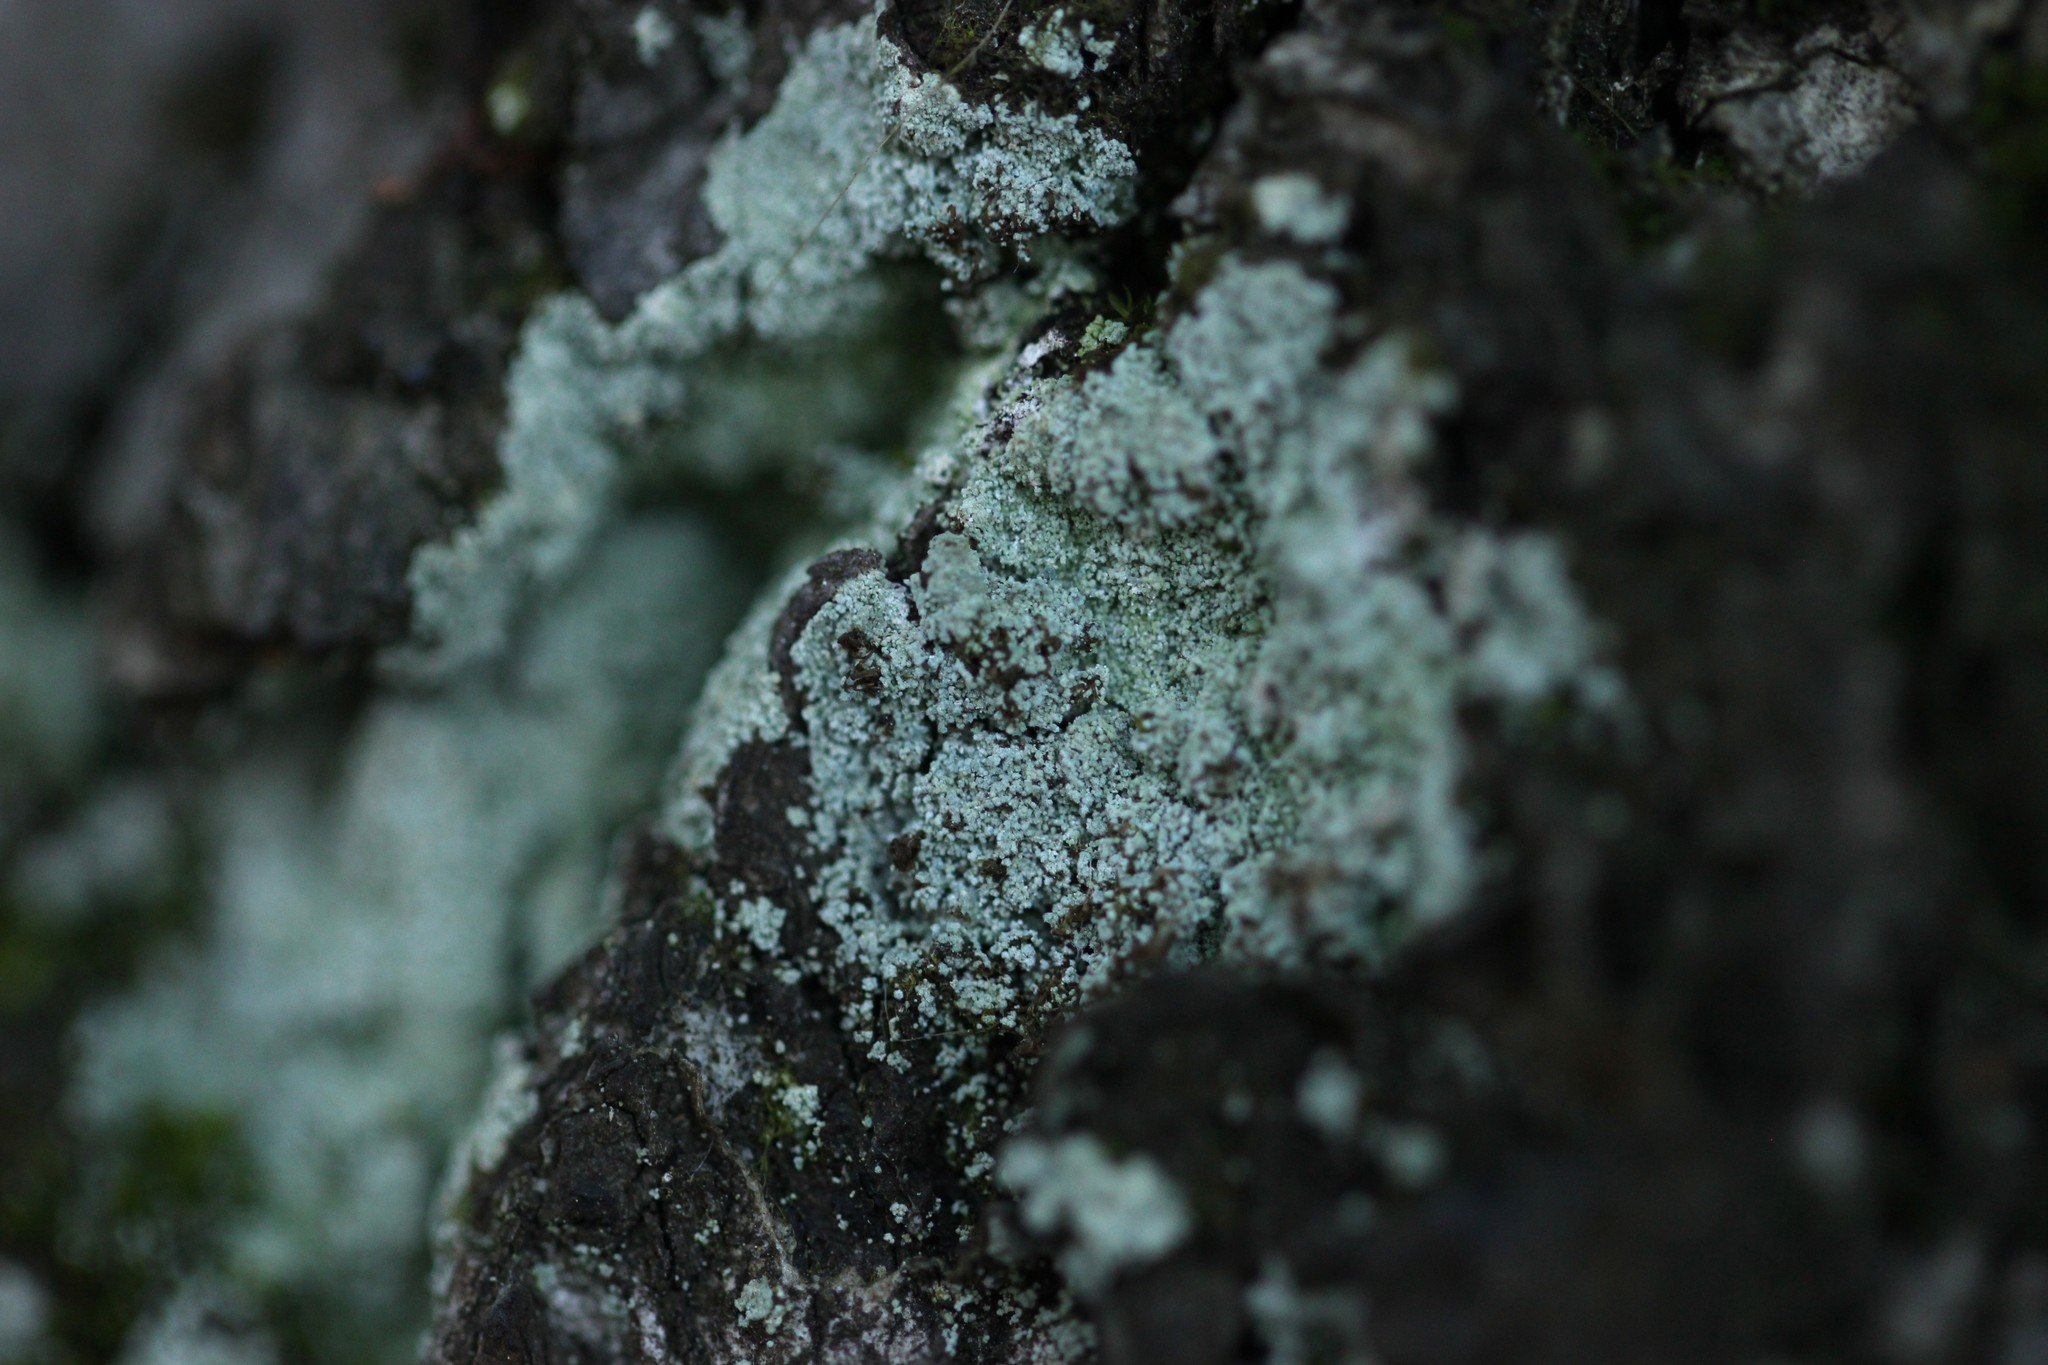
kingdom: Fungi
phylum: Ascomycota
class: Lecanoromycetes
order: Lecanorales
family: Stereocaulaceae
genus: Lepraria
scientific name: Lepraria
